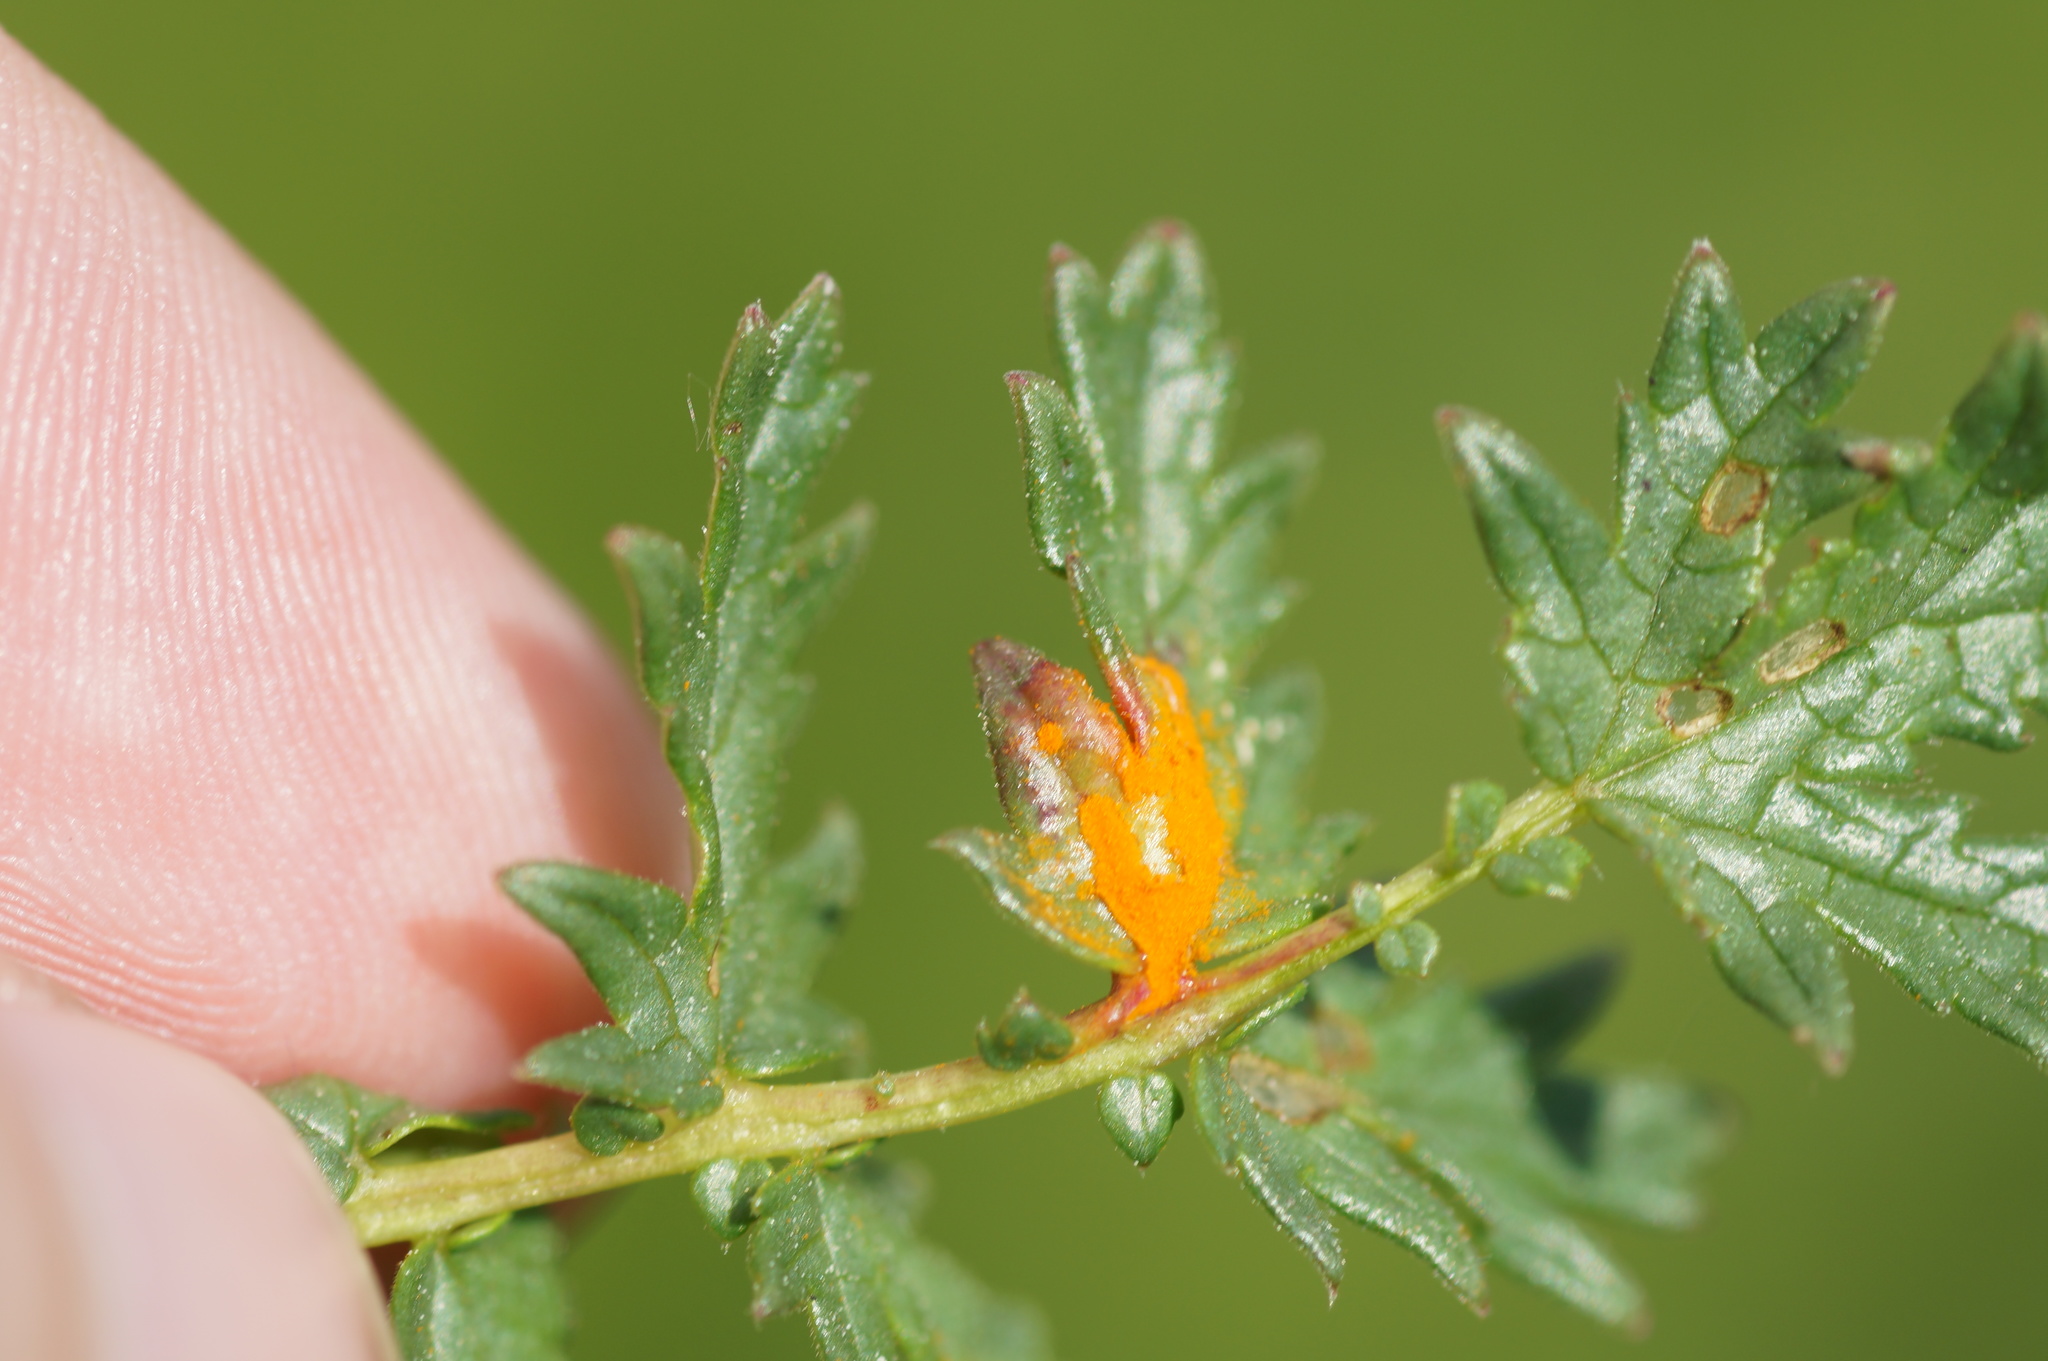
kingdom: Fungi
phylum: Basidiomycota
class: Pucciniomycetes
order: Pucciniales
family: Raveneliaceae
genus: Triphragmium
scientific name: Triphragmium ulmariae
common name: Meadowsweet rust
